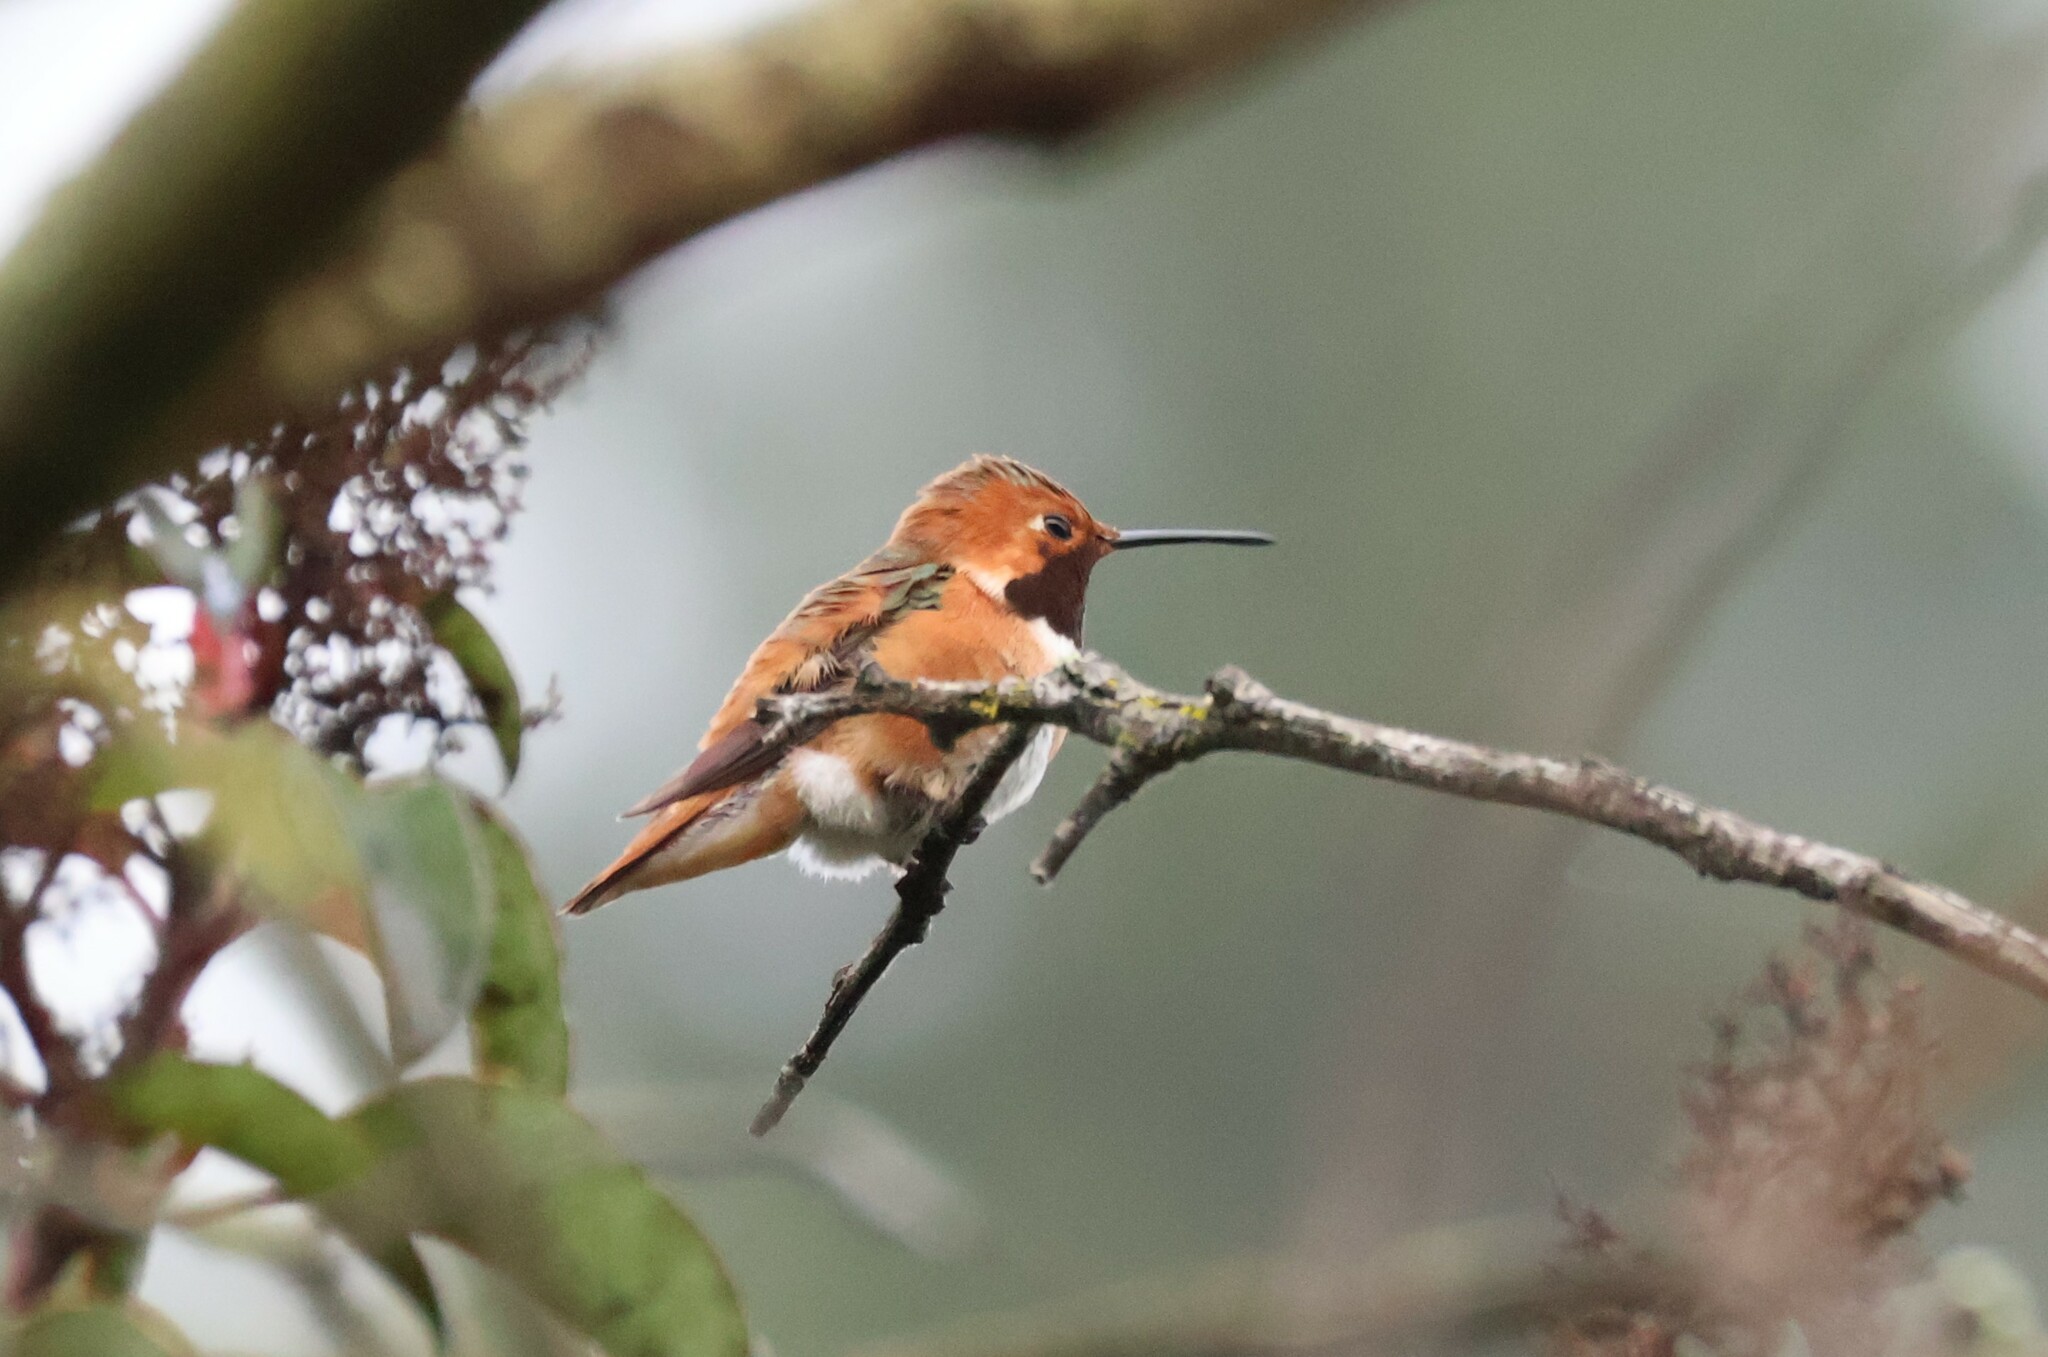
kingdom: Animalia
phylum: Chordata
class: Aves
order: Apodiformes
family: Trochilidae
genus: Selasphorus
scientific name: Selasphorus sasin
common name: Allen's hummingbird
